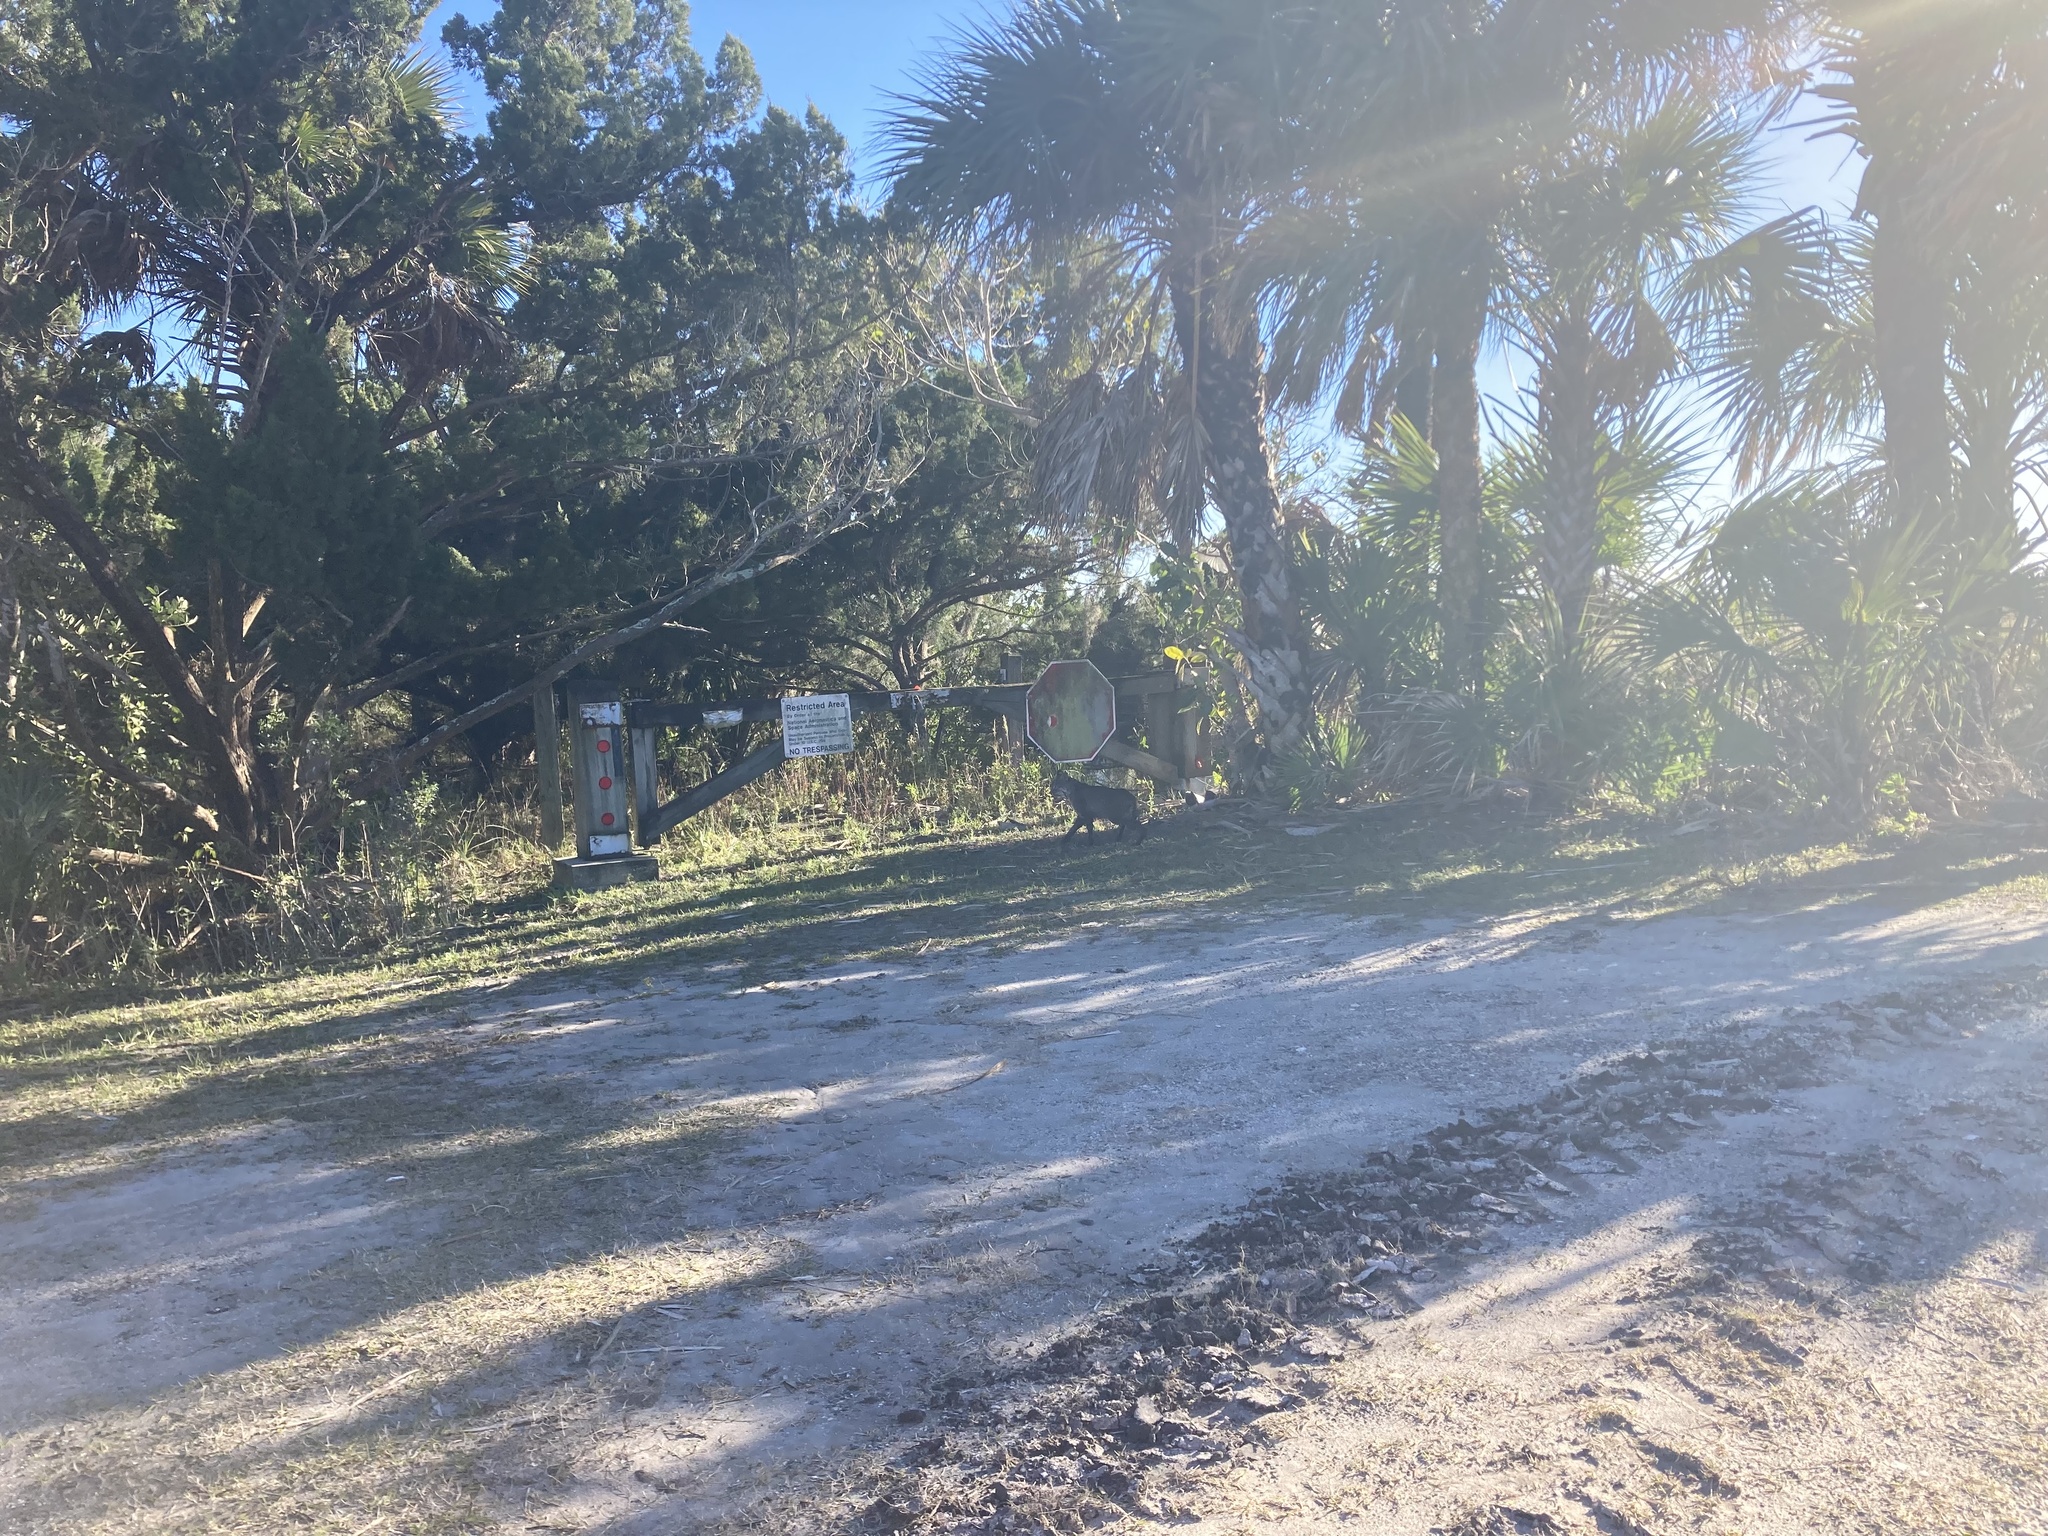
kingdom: Animalia
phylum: Chordata
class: Mammalia
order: Carnivora
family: Felidae
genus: Lynx
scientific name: Lynx rufus
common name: Bobcat
